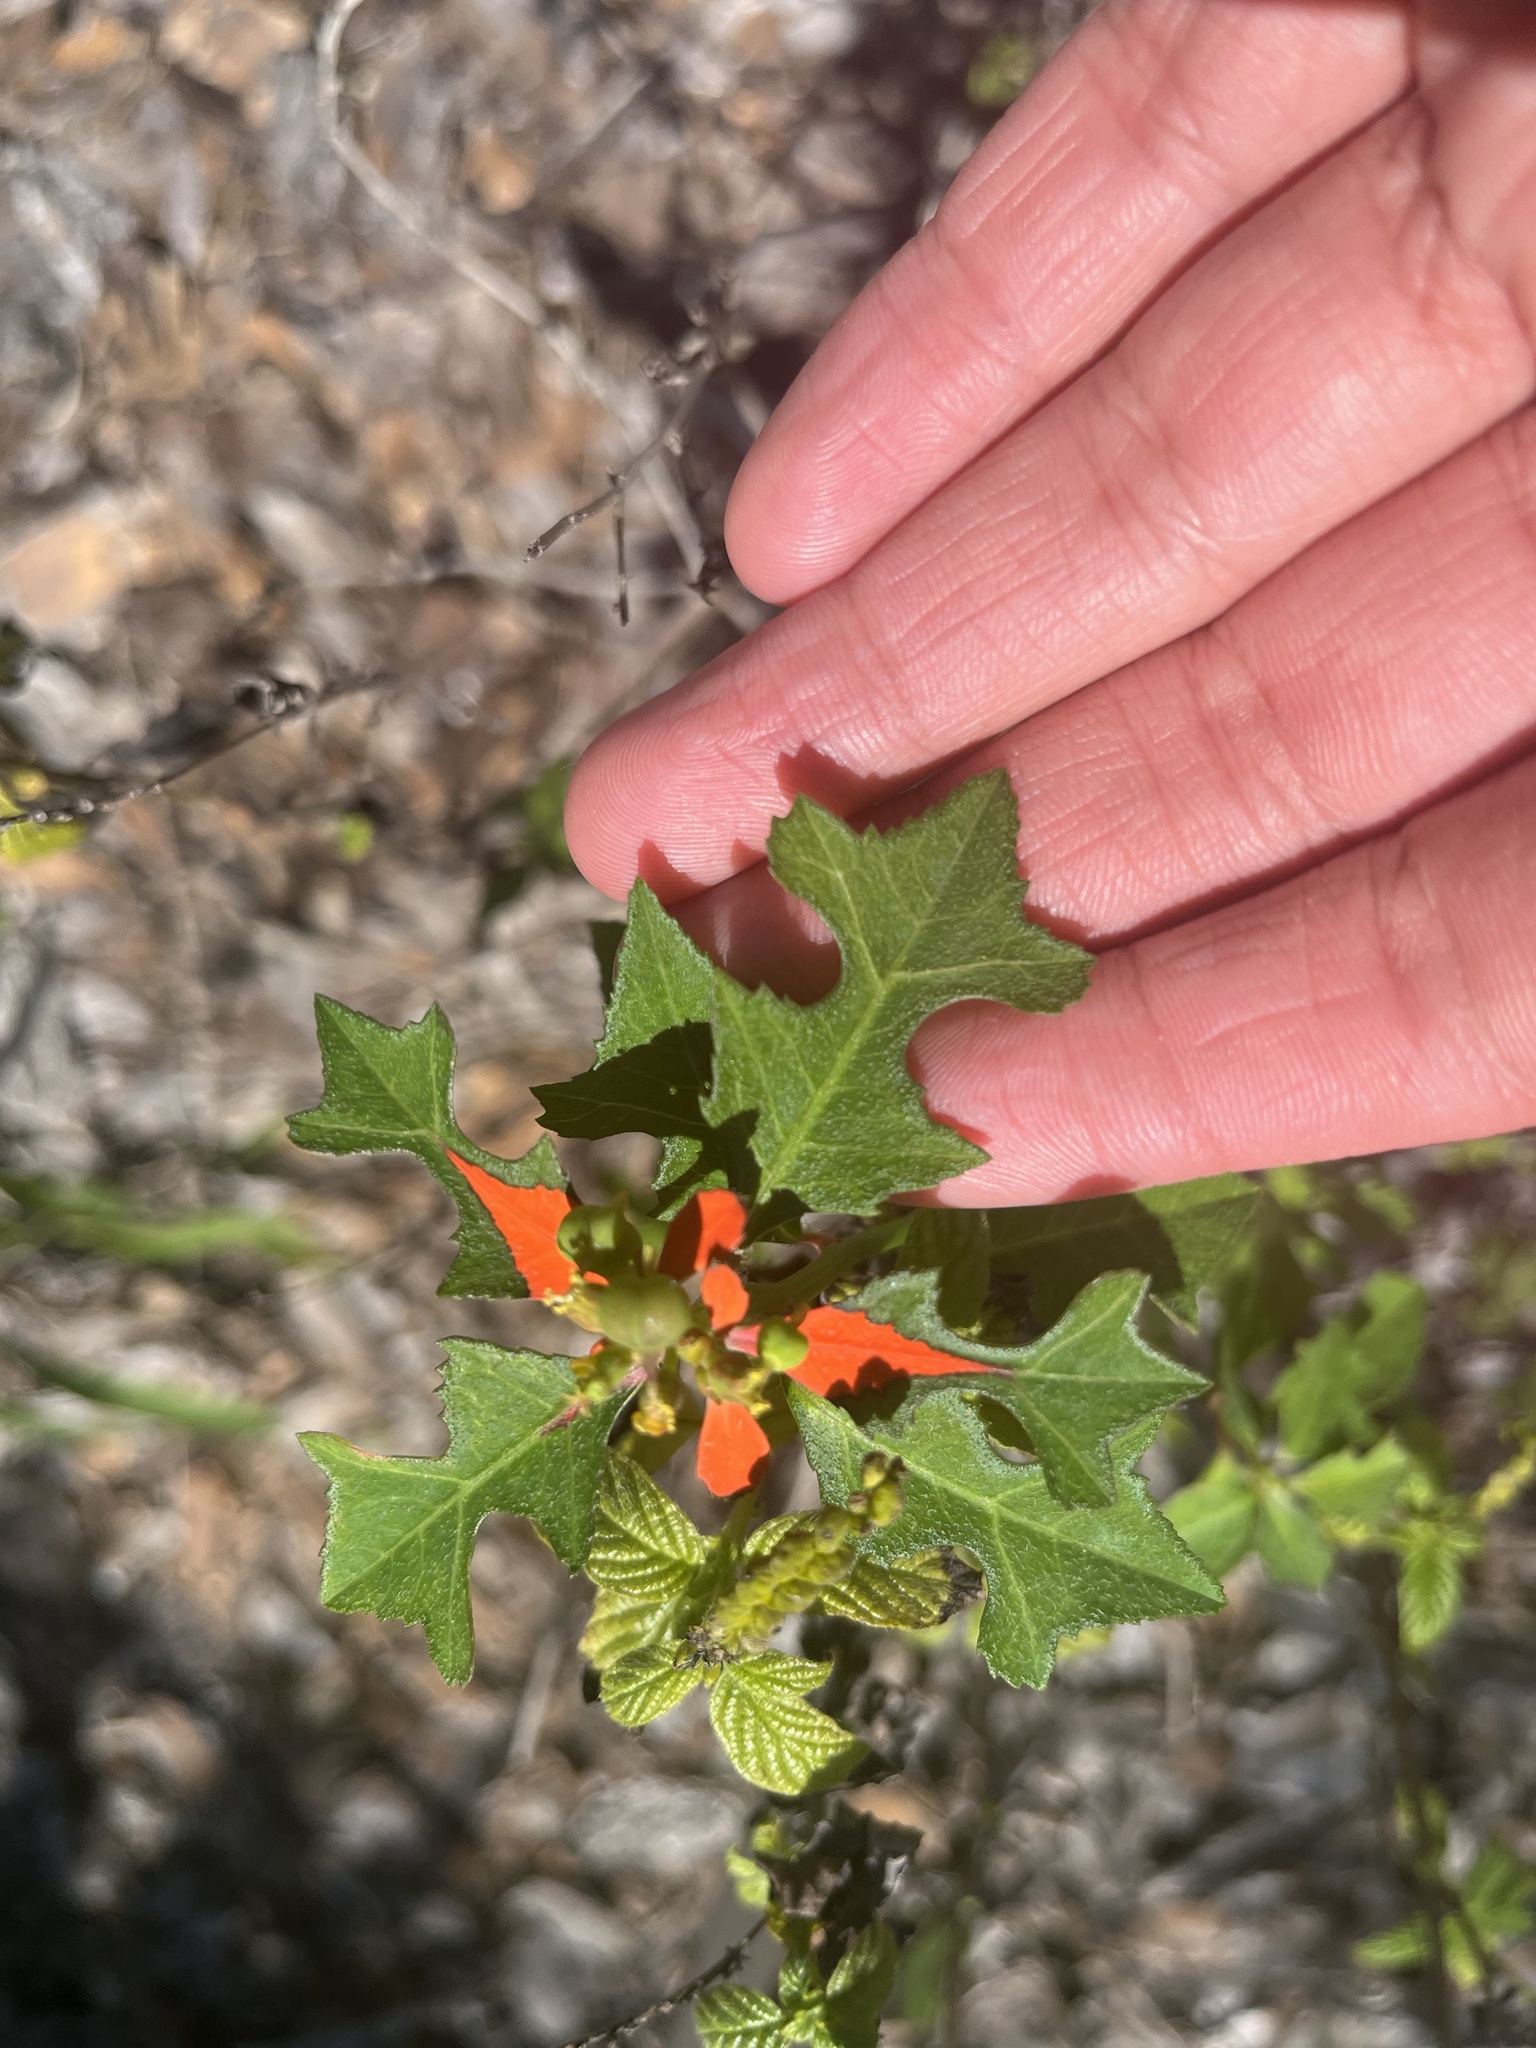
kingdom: Plantae
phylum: Tracheophyta
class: Magnoliopsida
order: Malpighiales
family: Euphorbiaceae
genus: Euphorbia
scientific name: Euphorbia heterophylla
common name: Mexican fireplant
